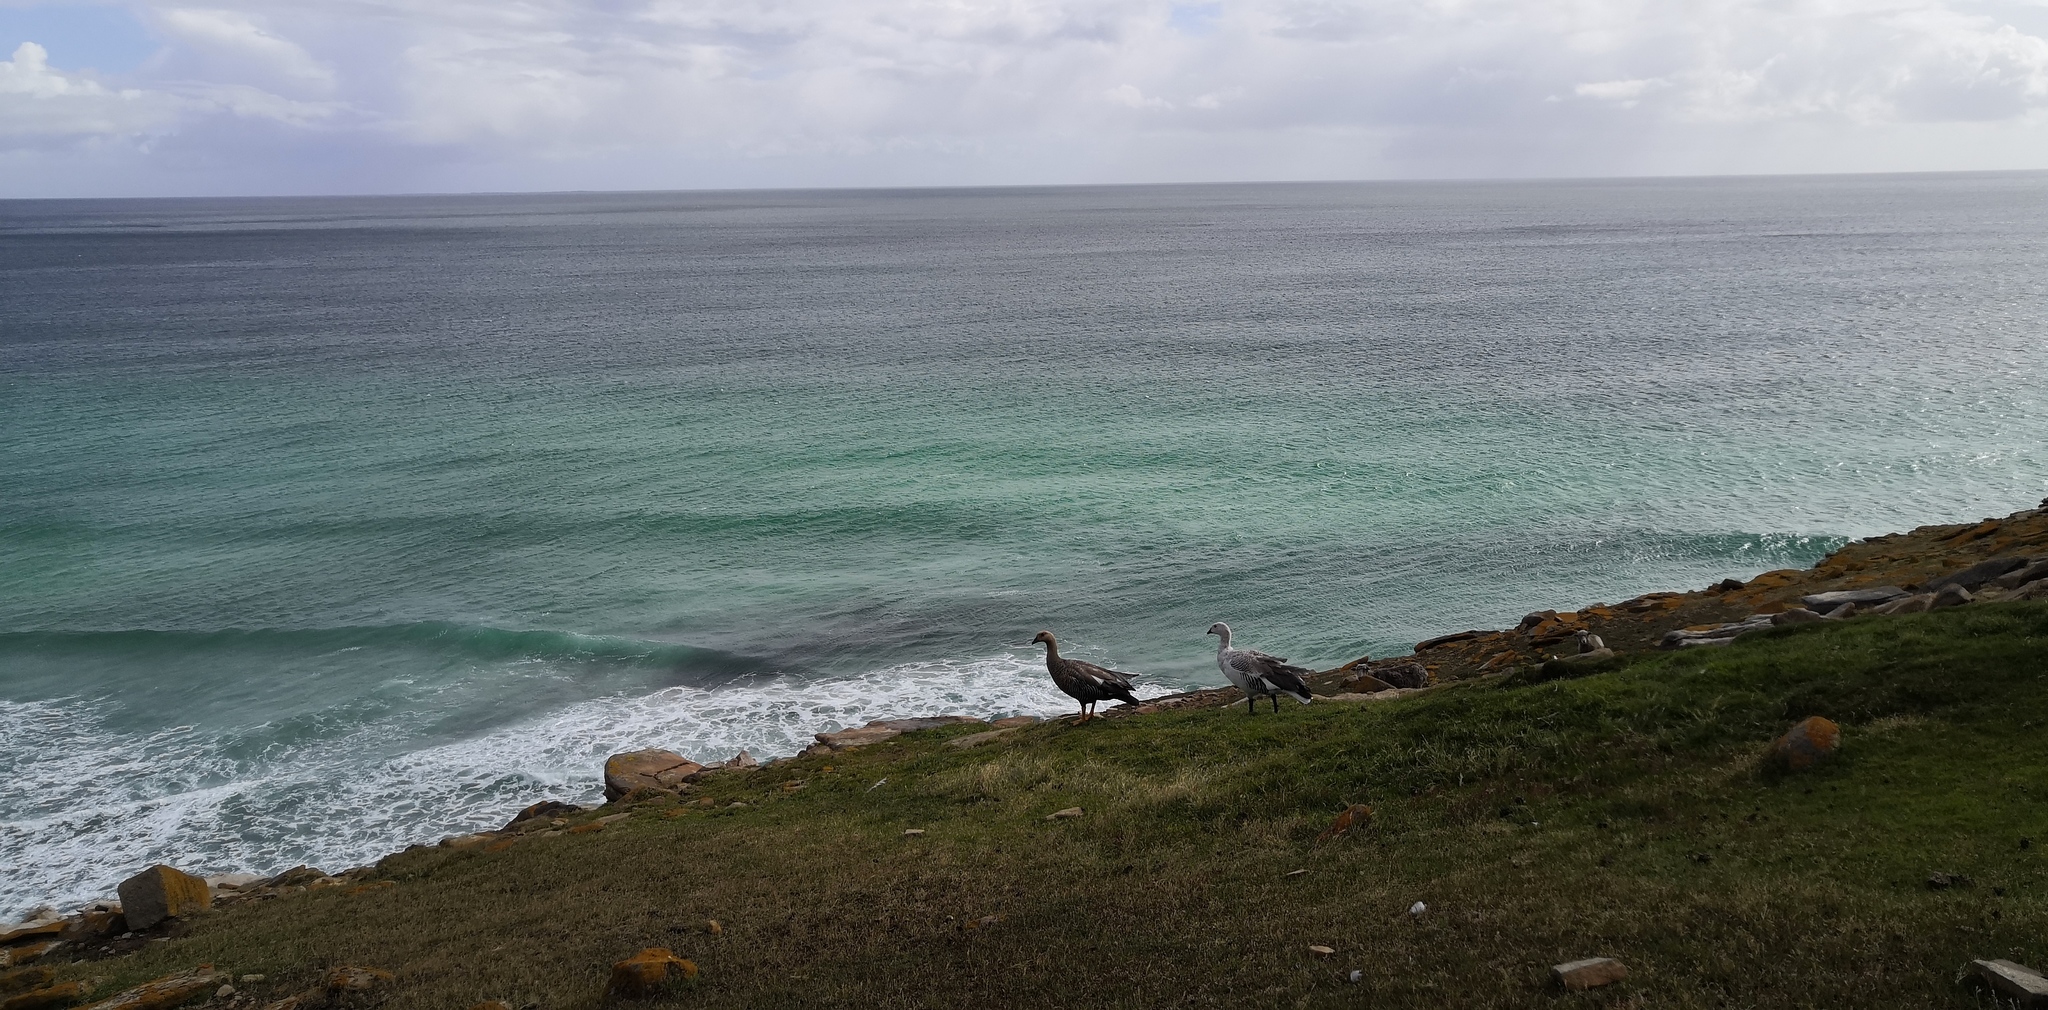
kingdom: Animalia
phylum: Chordata
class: Aves
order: Anseriformes
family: Anatidae
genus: Chloephaga
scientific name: Chloephaga picta
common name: Upland goose
